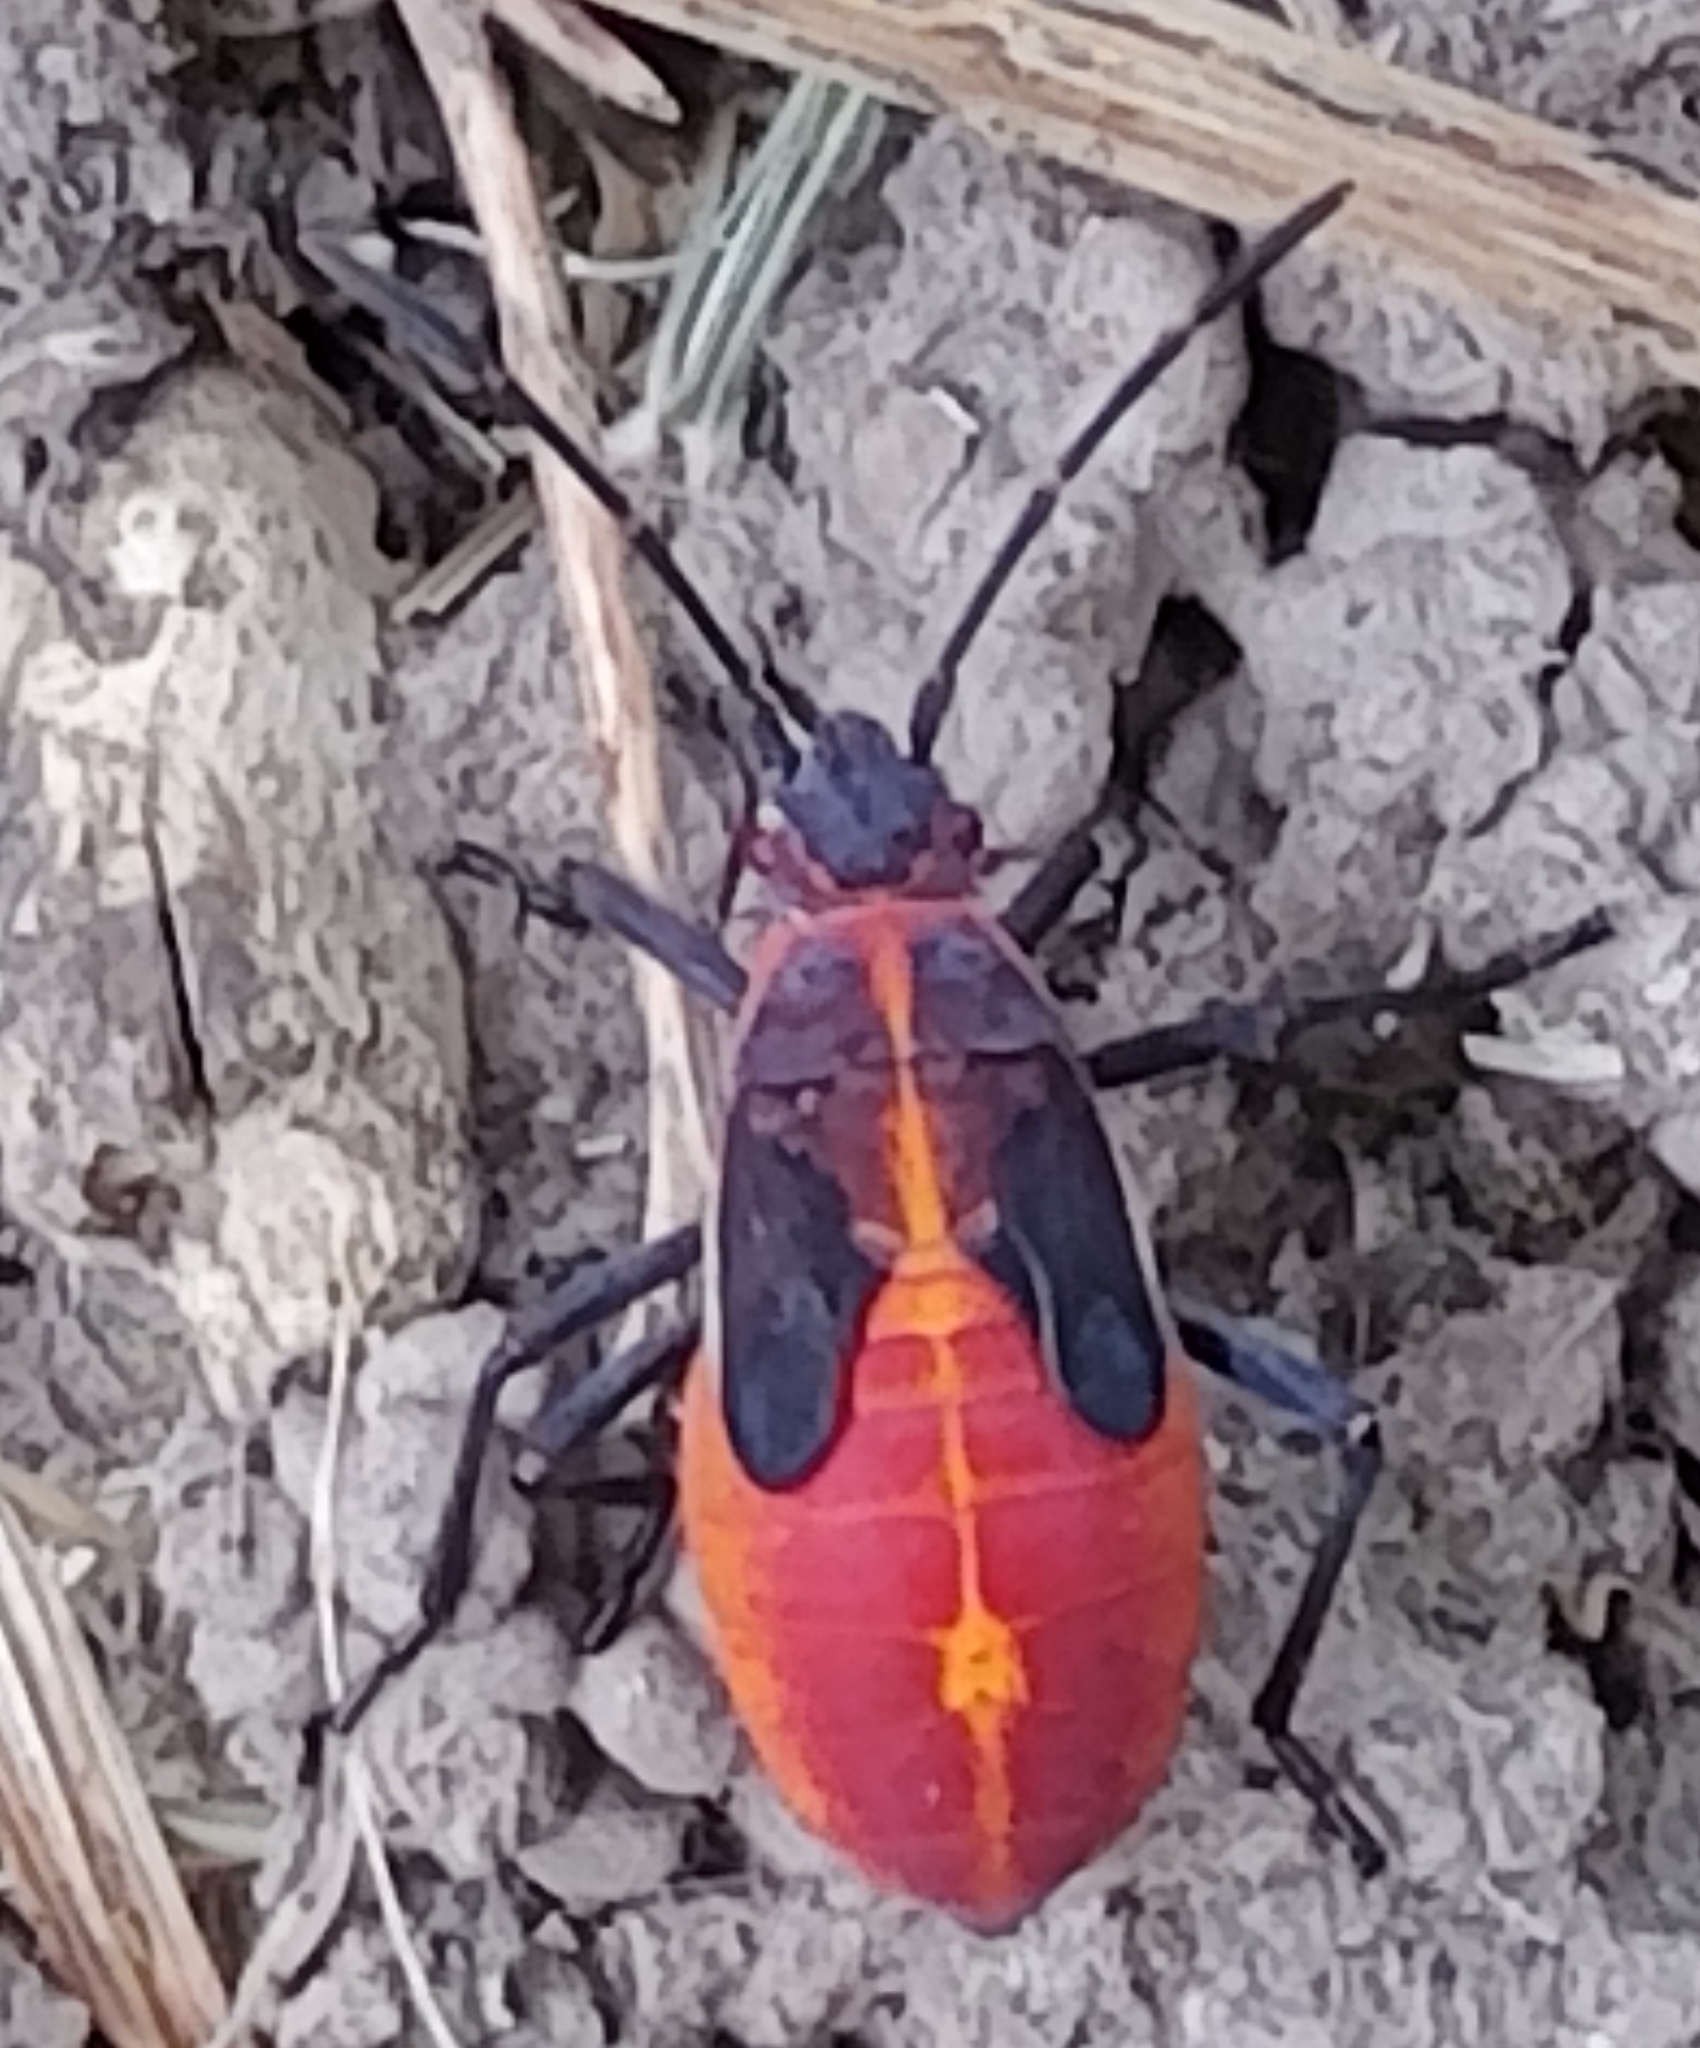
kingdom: Animalia
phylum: Arthropoda
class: Insecta
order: Hemiptera
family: Rhopalidae
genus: Boisea
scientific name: Boisea trivittata
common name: Boxelder bug
